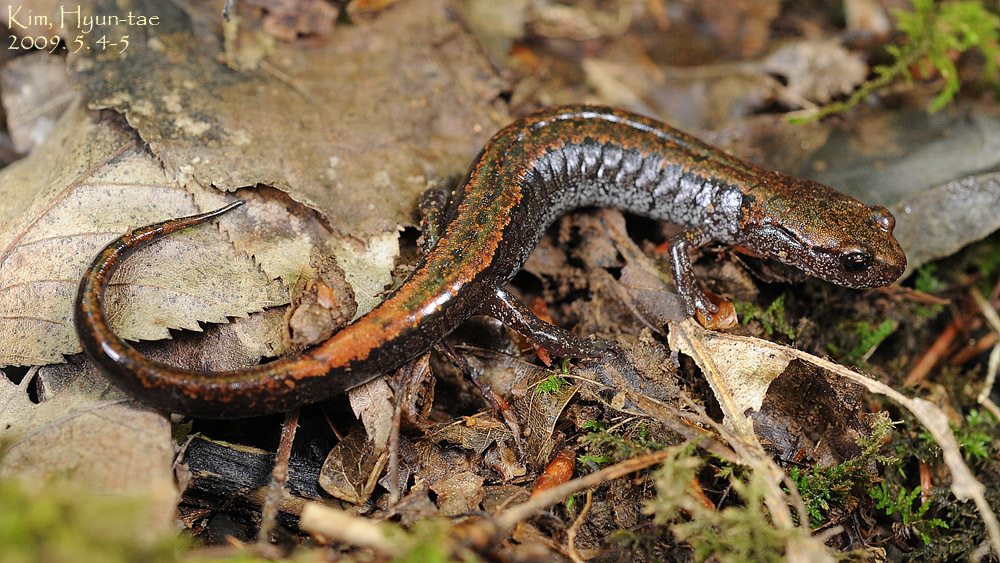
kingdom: Animalia
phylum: Chordata
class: Amphibia
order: Caudata
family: Plethodontidae
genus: Karsenia
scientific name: Karsenia koreana
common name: Korean crevice salamander
